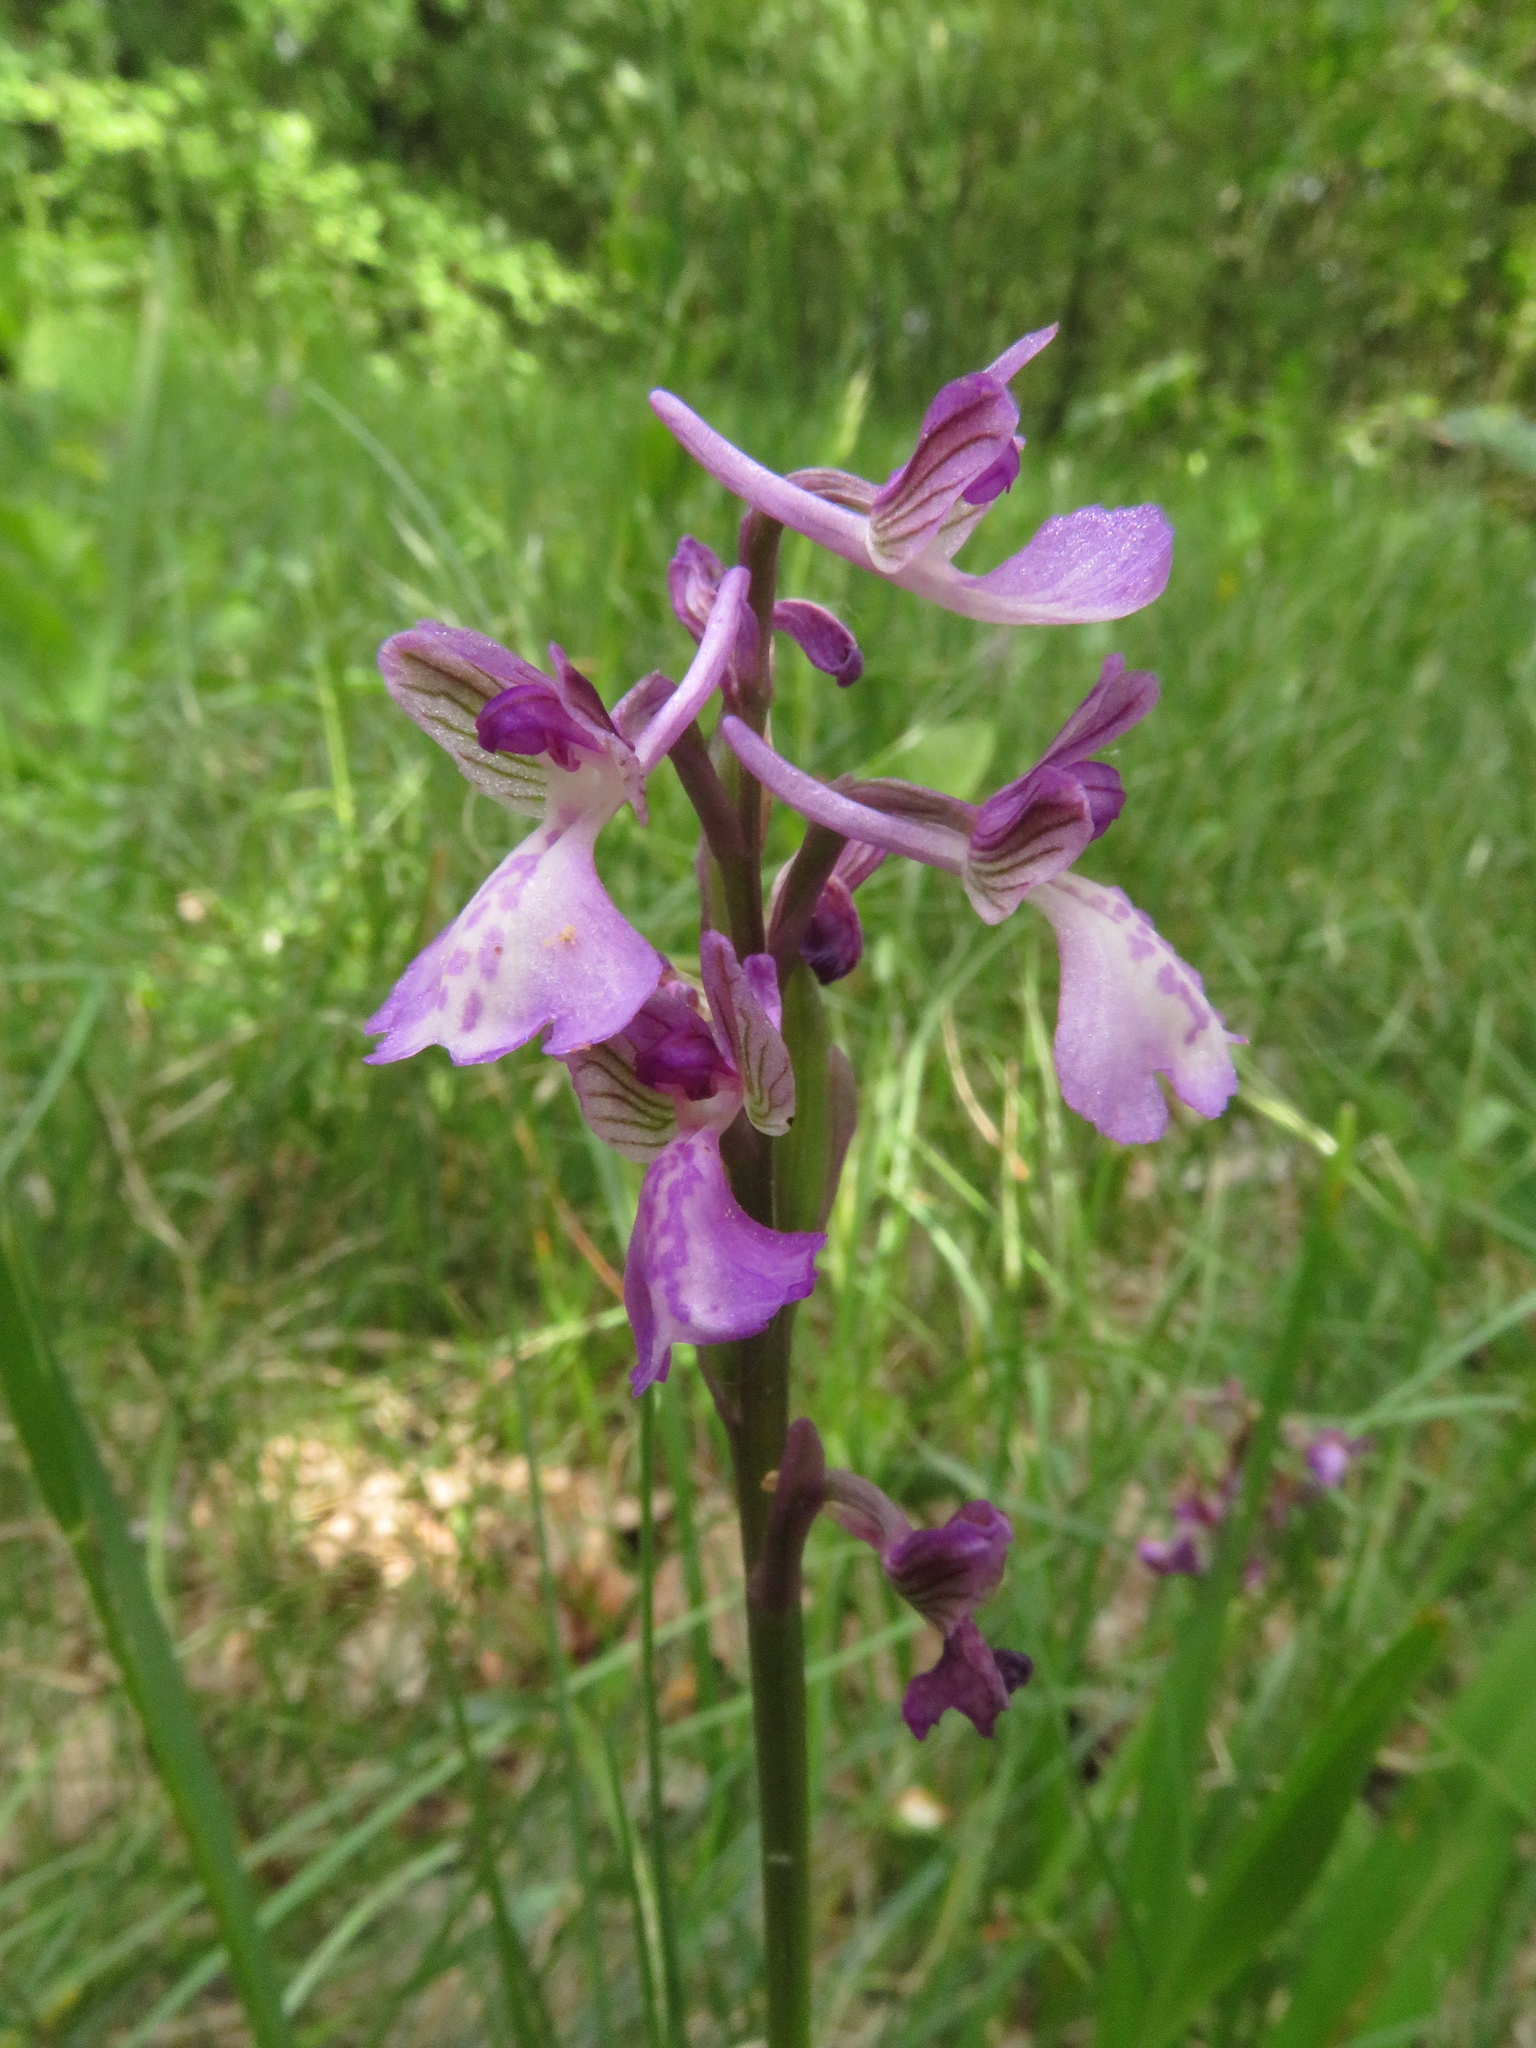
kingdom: Plantae
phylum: Tracheophyta
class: Liliopsida
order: Asparagales
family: Orchidaceae
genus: Anacamptis
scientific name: Anacamptis morio
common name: Green-winged orchid
